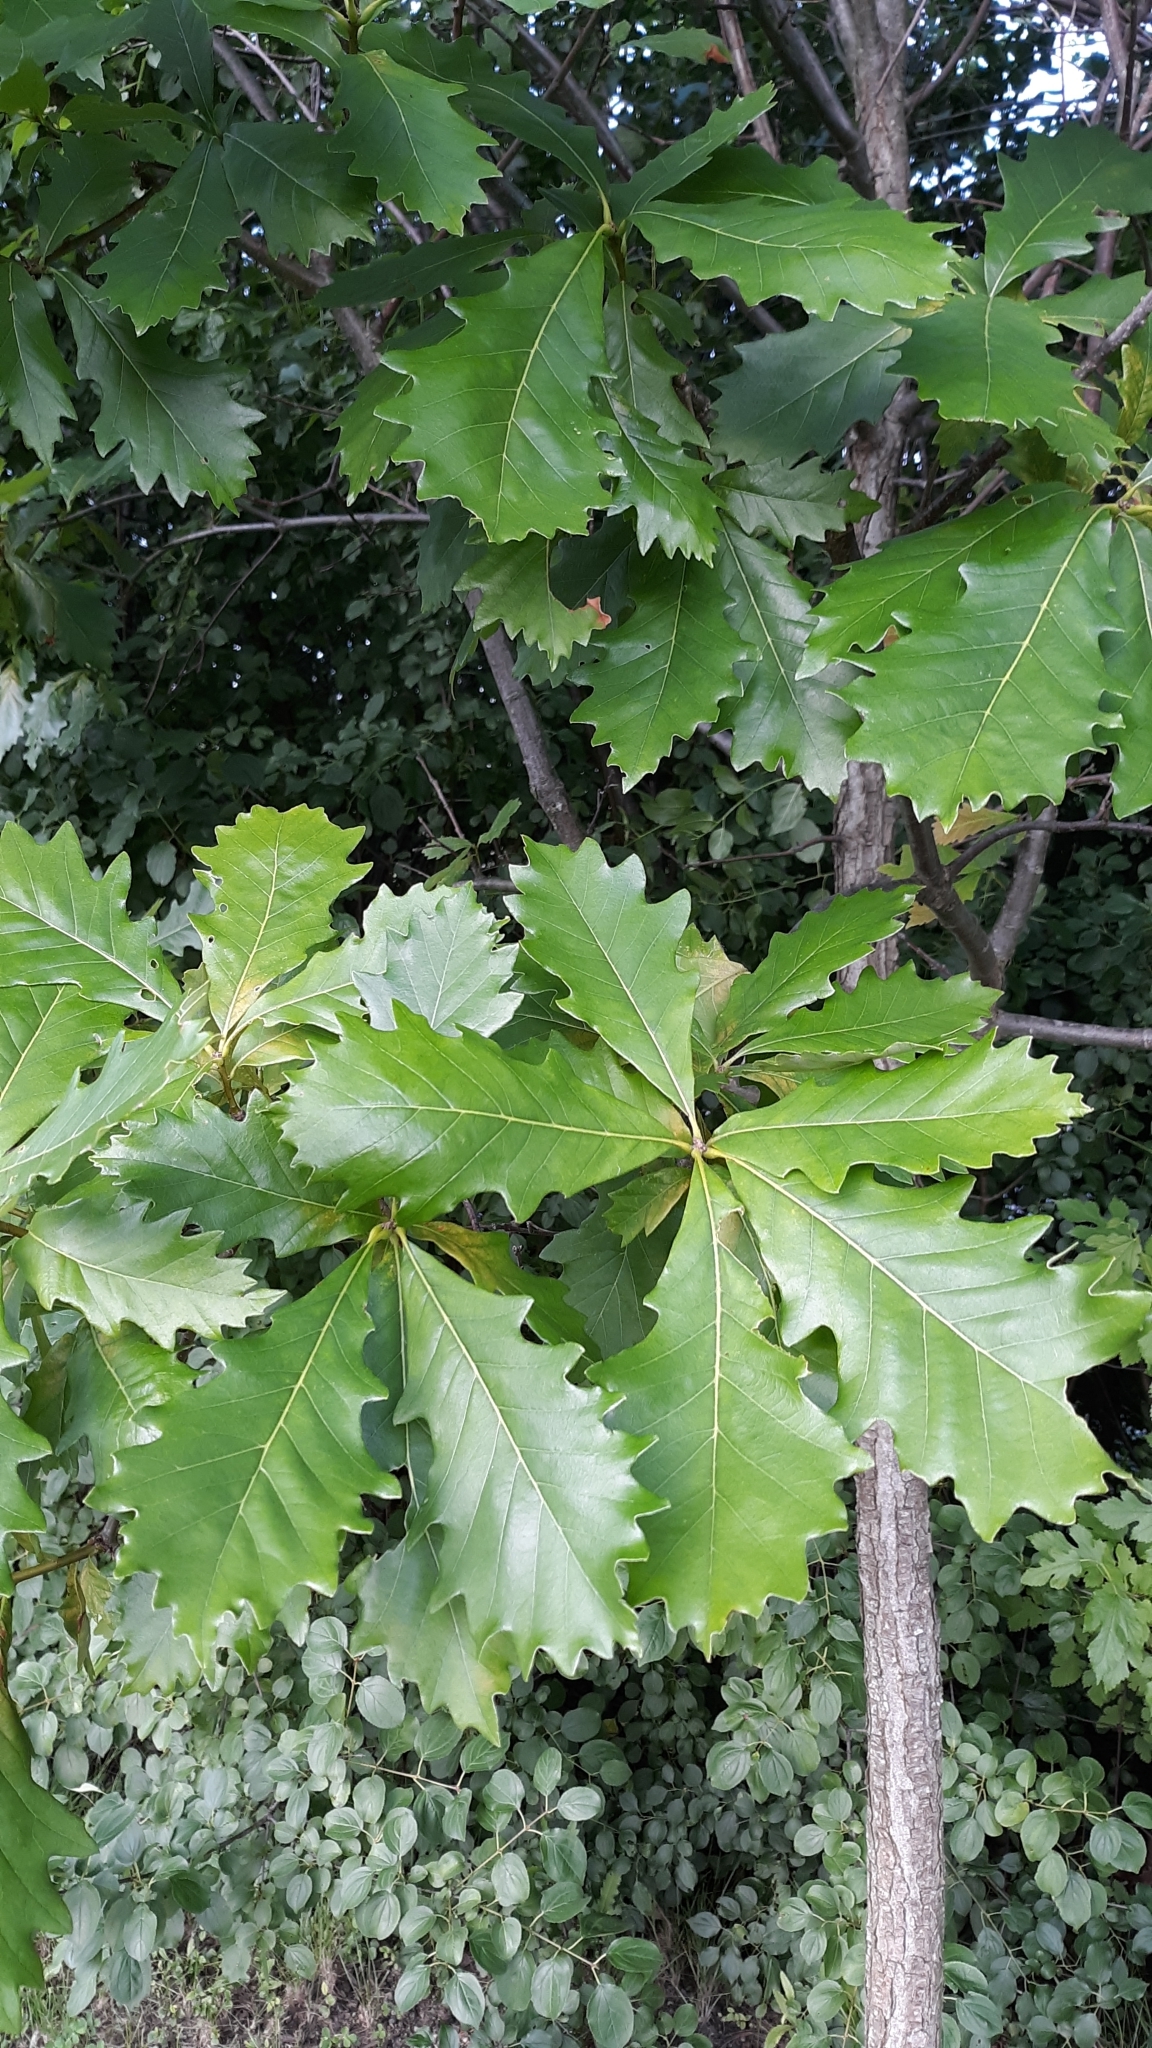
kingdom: Plantae
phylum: Tracheophyta
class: Magnoliopsida
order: Fagales
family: Fagaceae
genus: Quercus
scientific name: Quercus bicolor
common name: Swamp white oak
